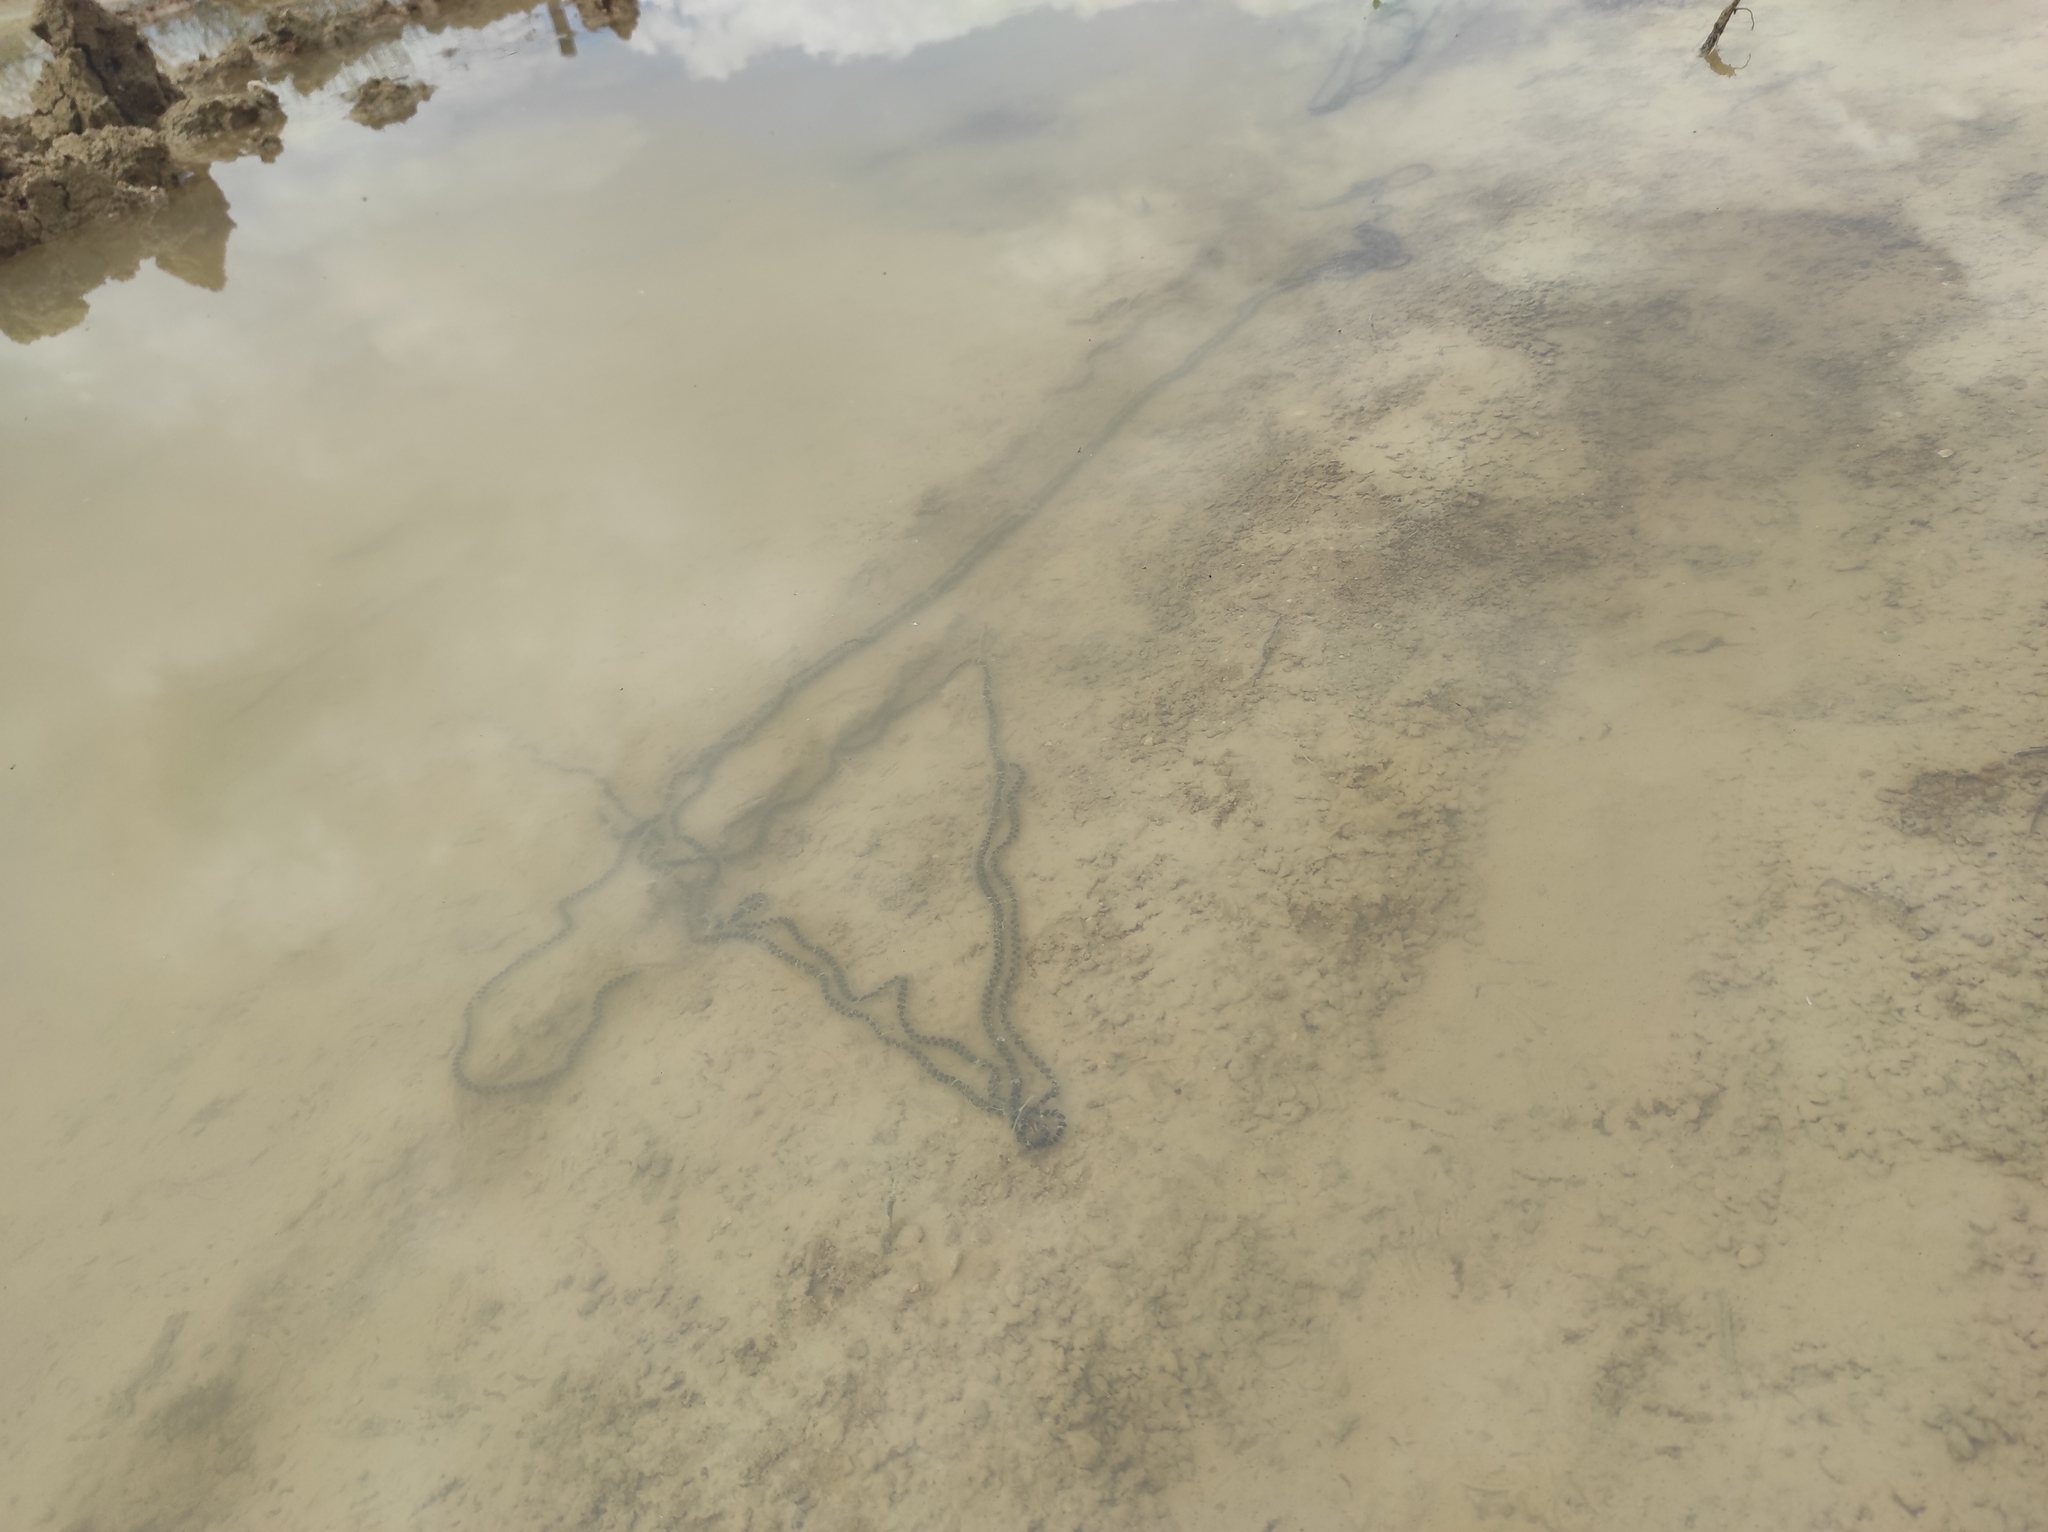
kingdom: Animalia
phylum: Chordata
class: Amphibia
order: Anura
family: Bufonidae
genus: Epidalea
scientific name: Epidalea calamita
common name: Natterjack toad
